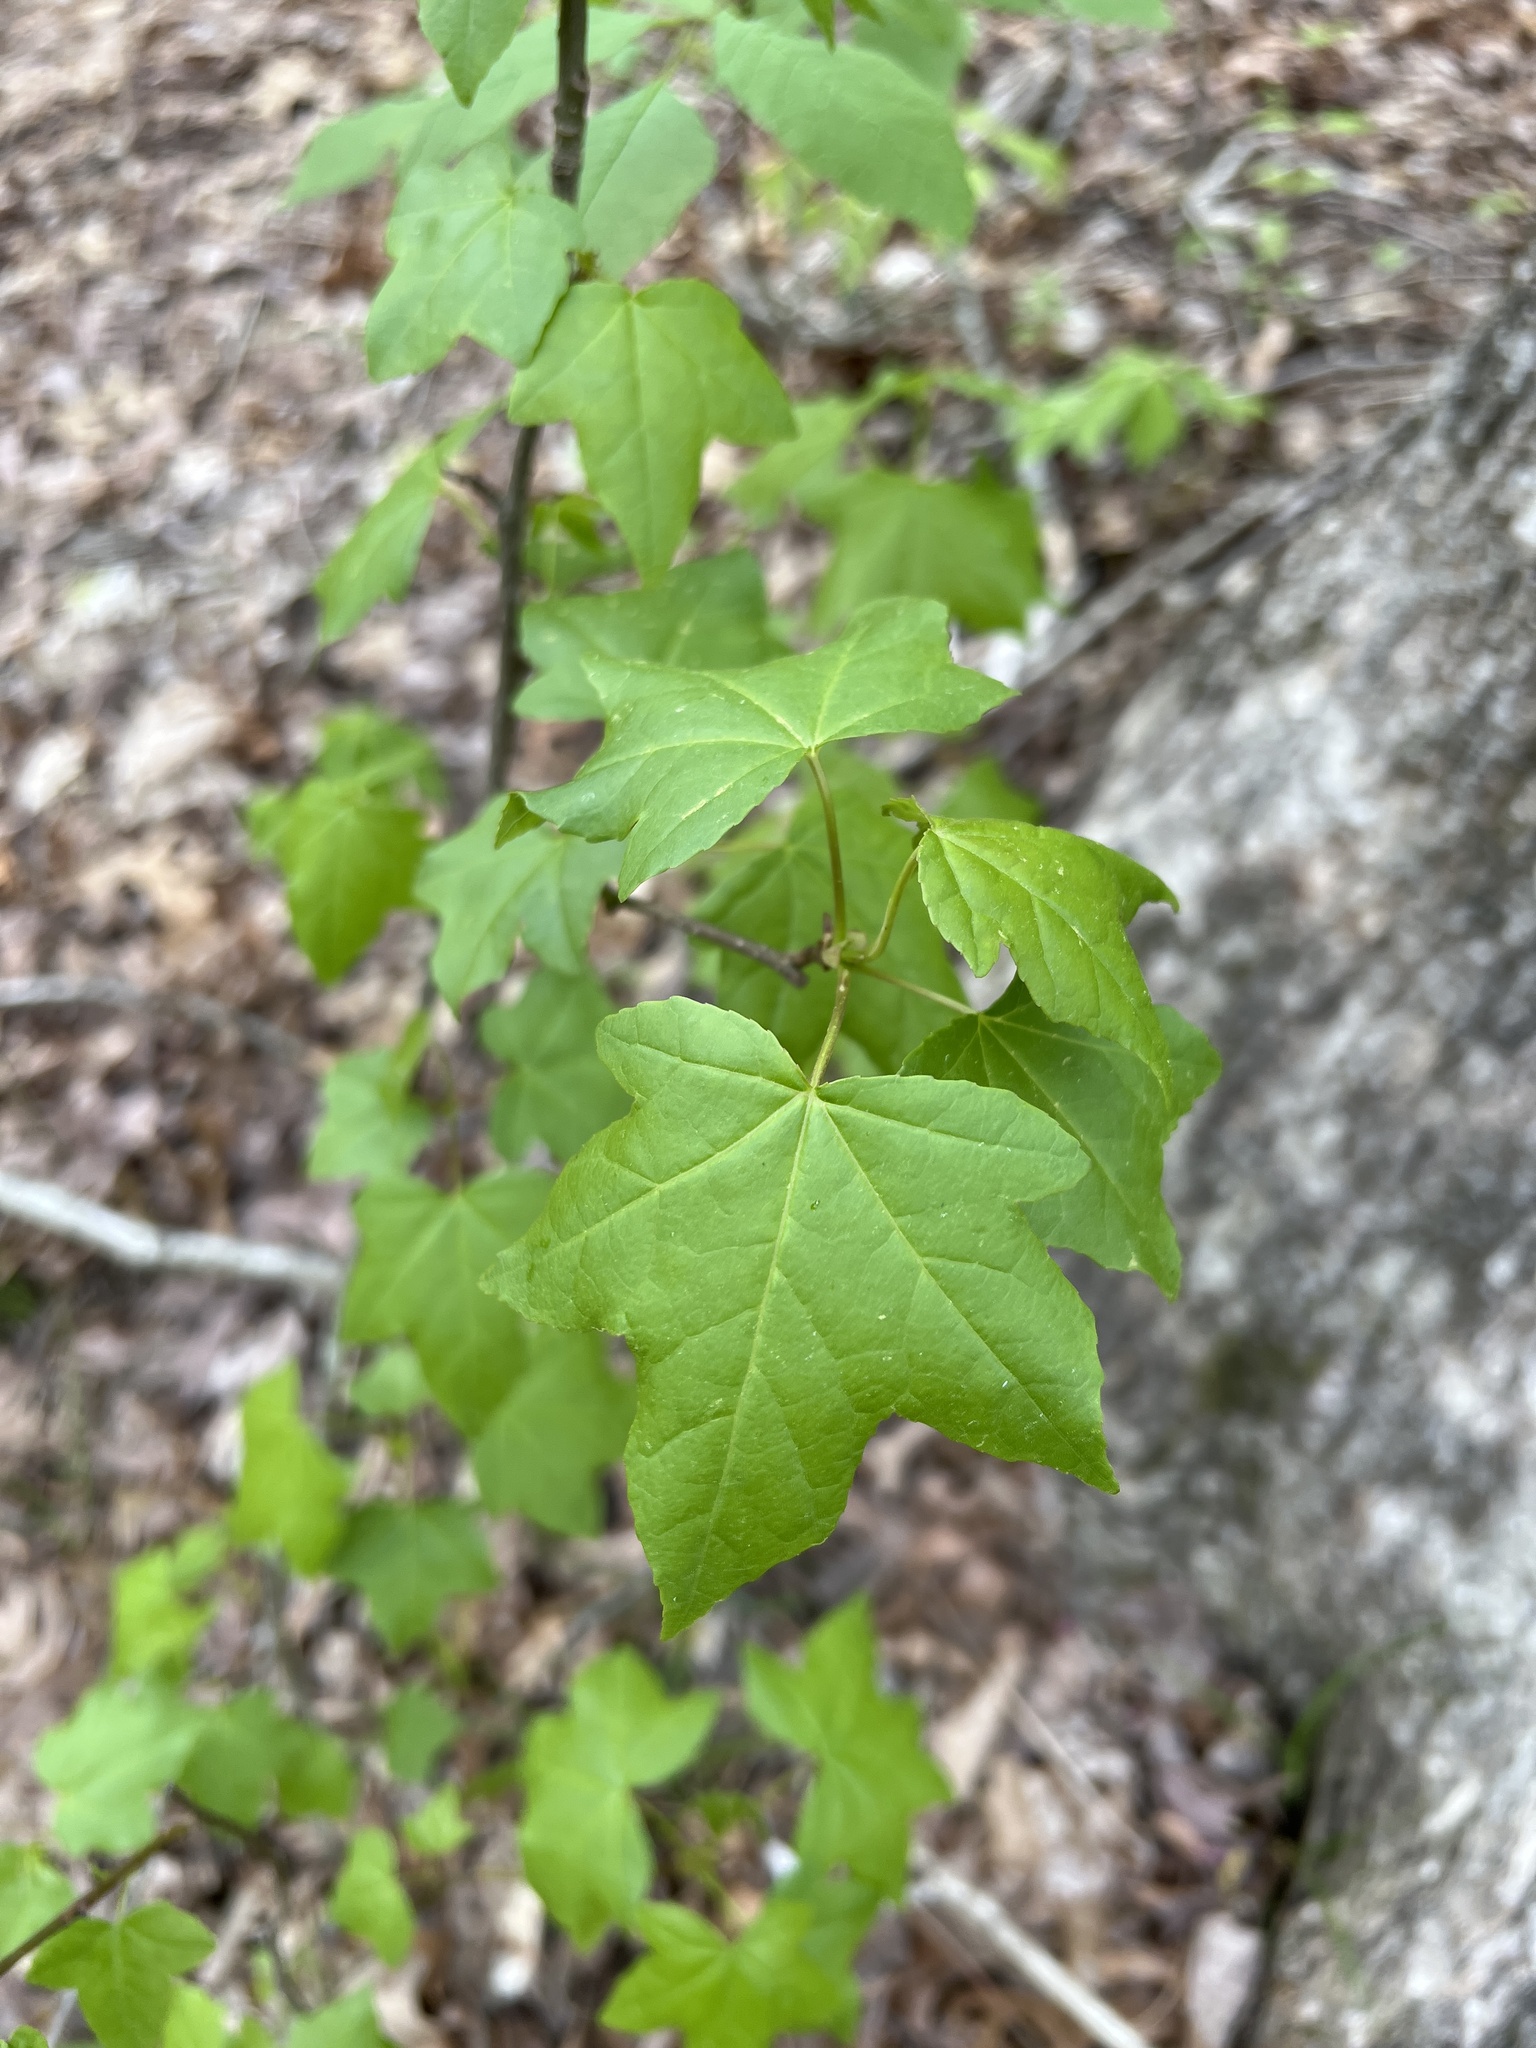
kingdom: Plantae
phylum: Tracheophyta
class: Magnoliopsida
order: Saxifragales
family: Altingiaceae
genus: Liquidambar
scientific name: Liquidambar styraciflua
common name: Sweet gum
